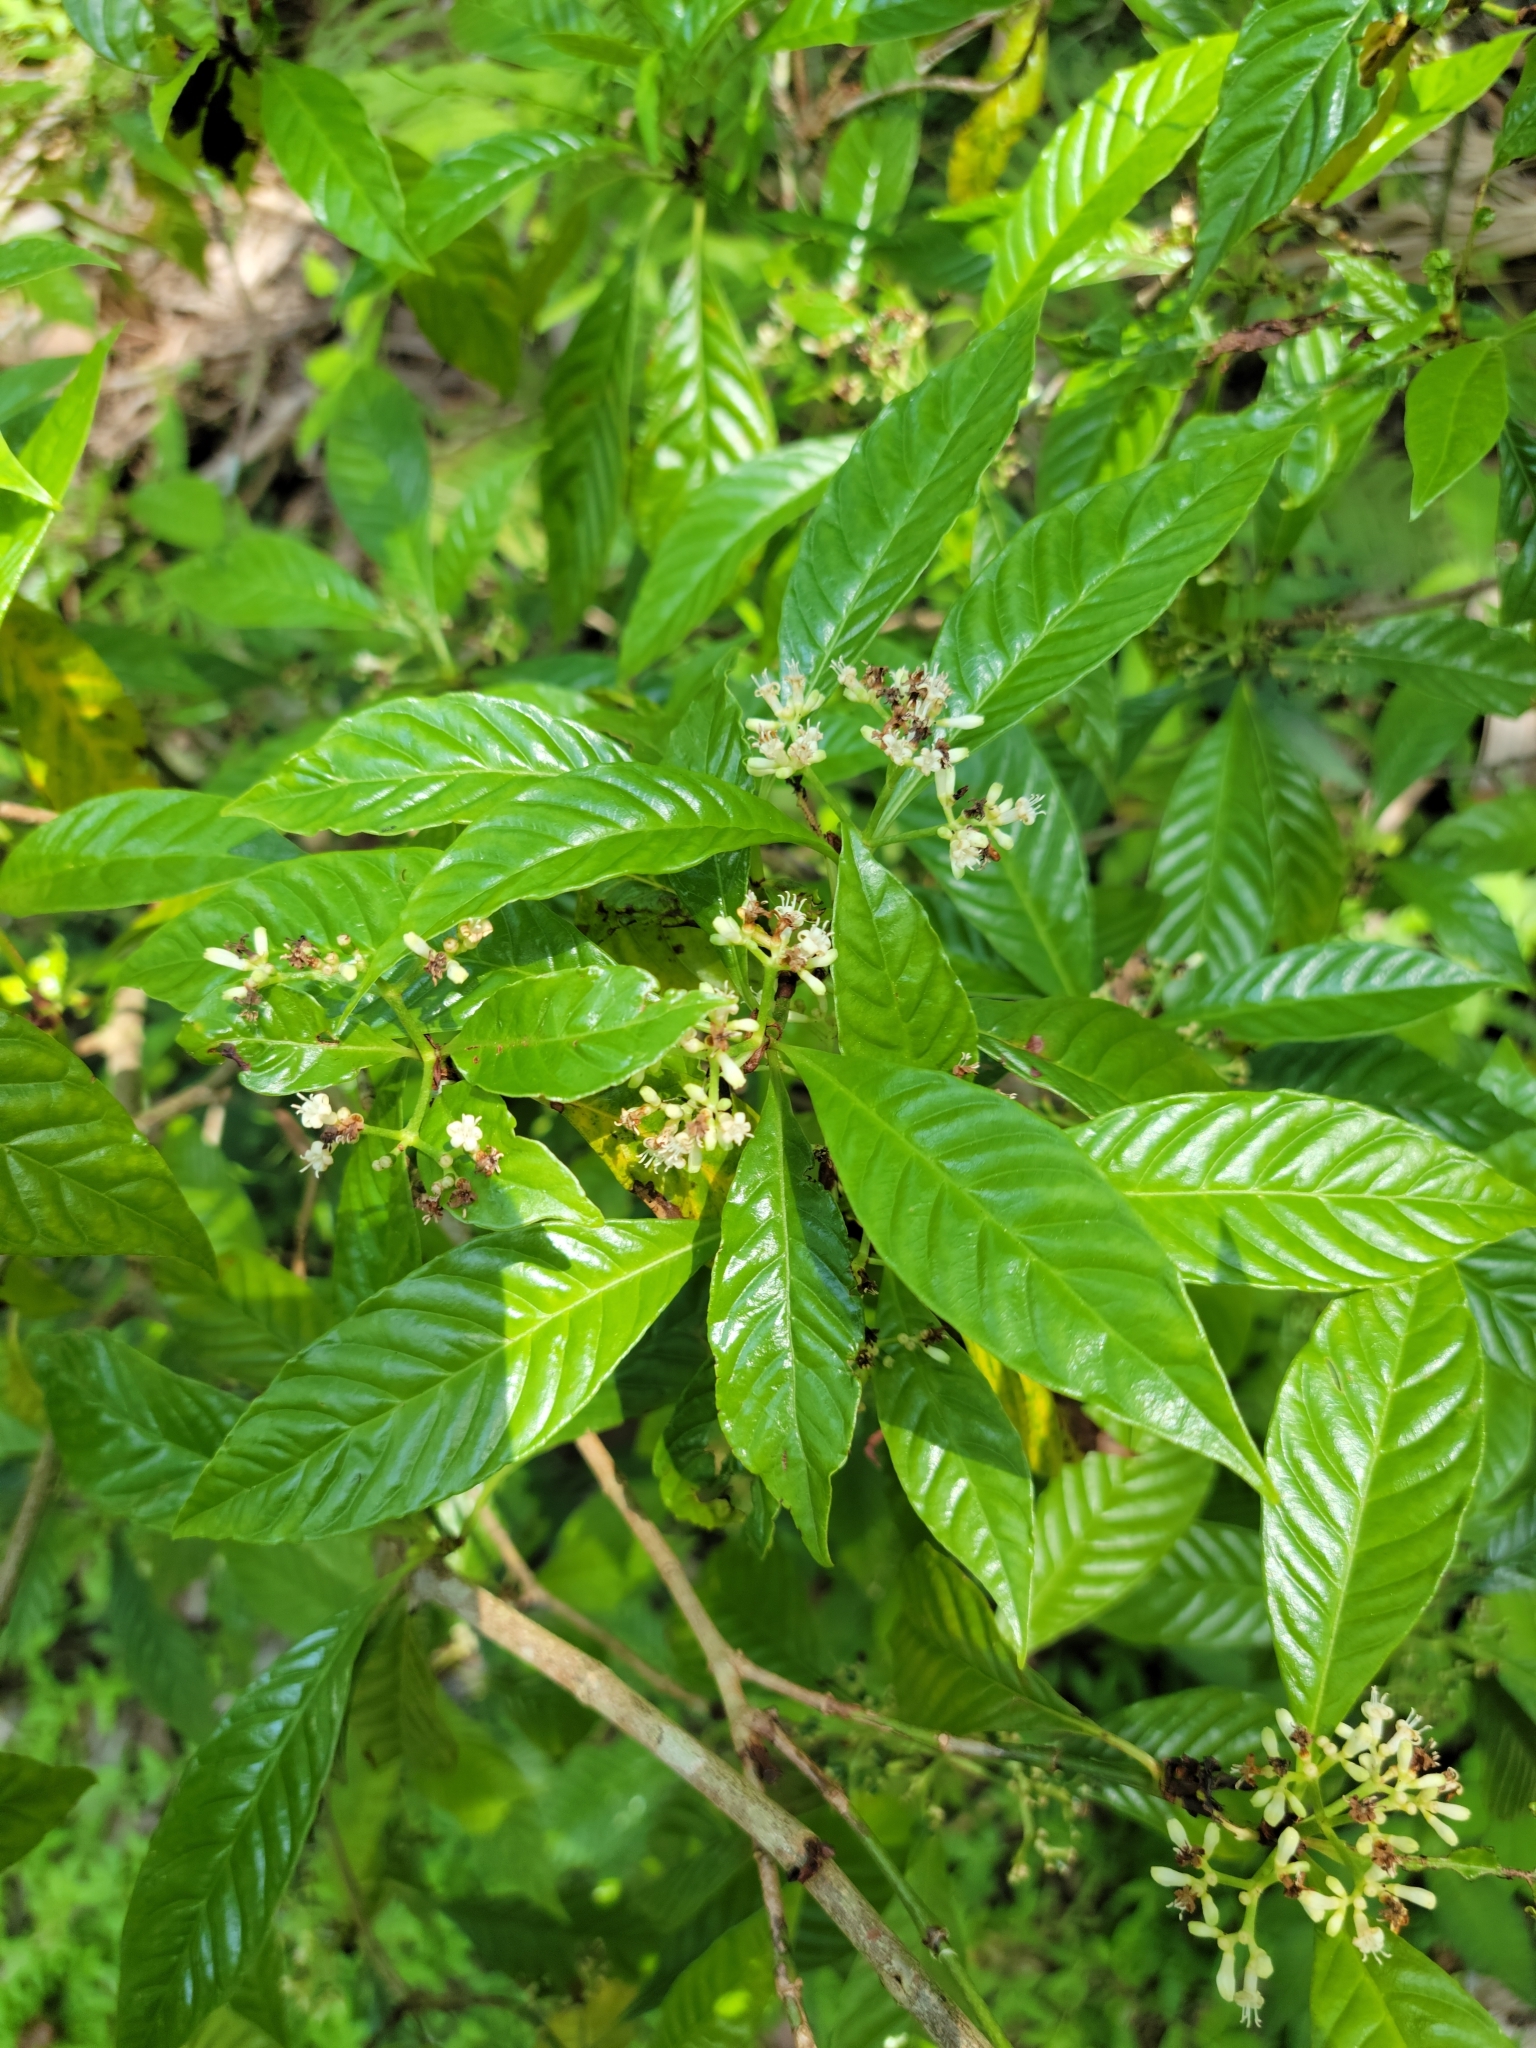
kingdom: Plantae
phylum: Tracheophyta
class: Magnoliopsida
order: Gentianales
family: Rubiaceae
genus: Psychotria
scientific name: Psychotria nervosa
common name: Bastard cankerberry
